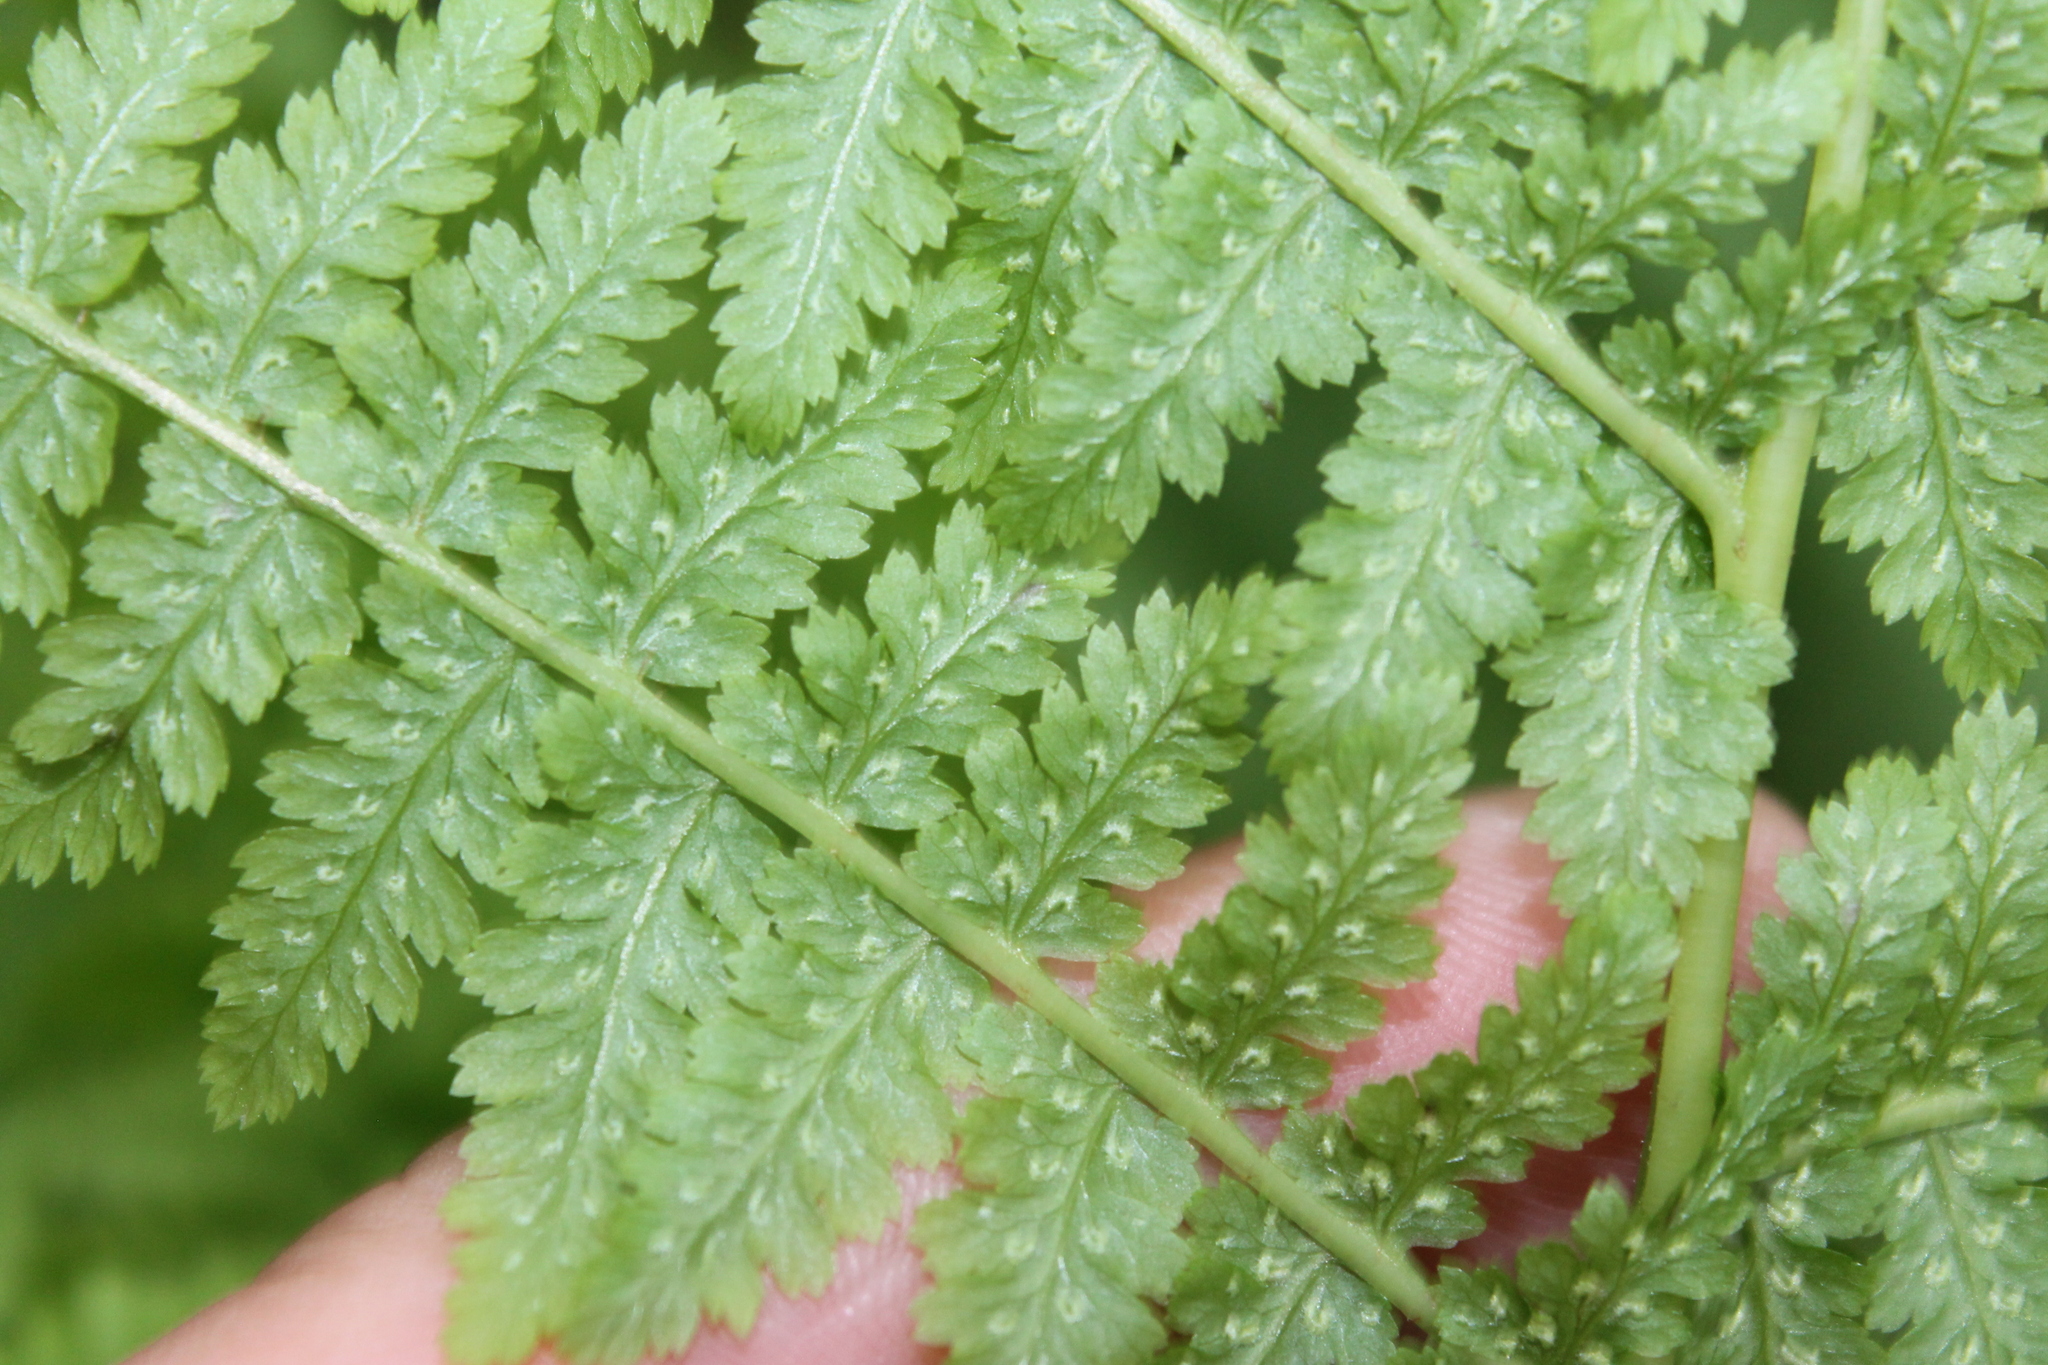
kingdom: Plantae
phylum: Tracheophyta
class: Polypodiopsida
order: Polypodiales
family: Athyriaceae
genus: Athyrium
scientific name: Athyrium filix-femina
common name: Lady fern
